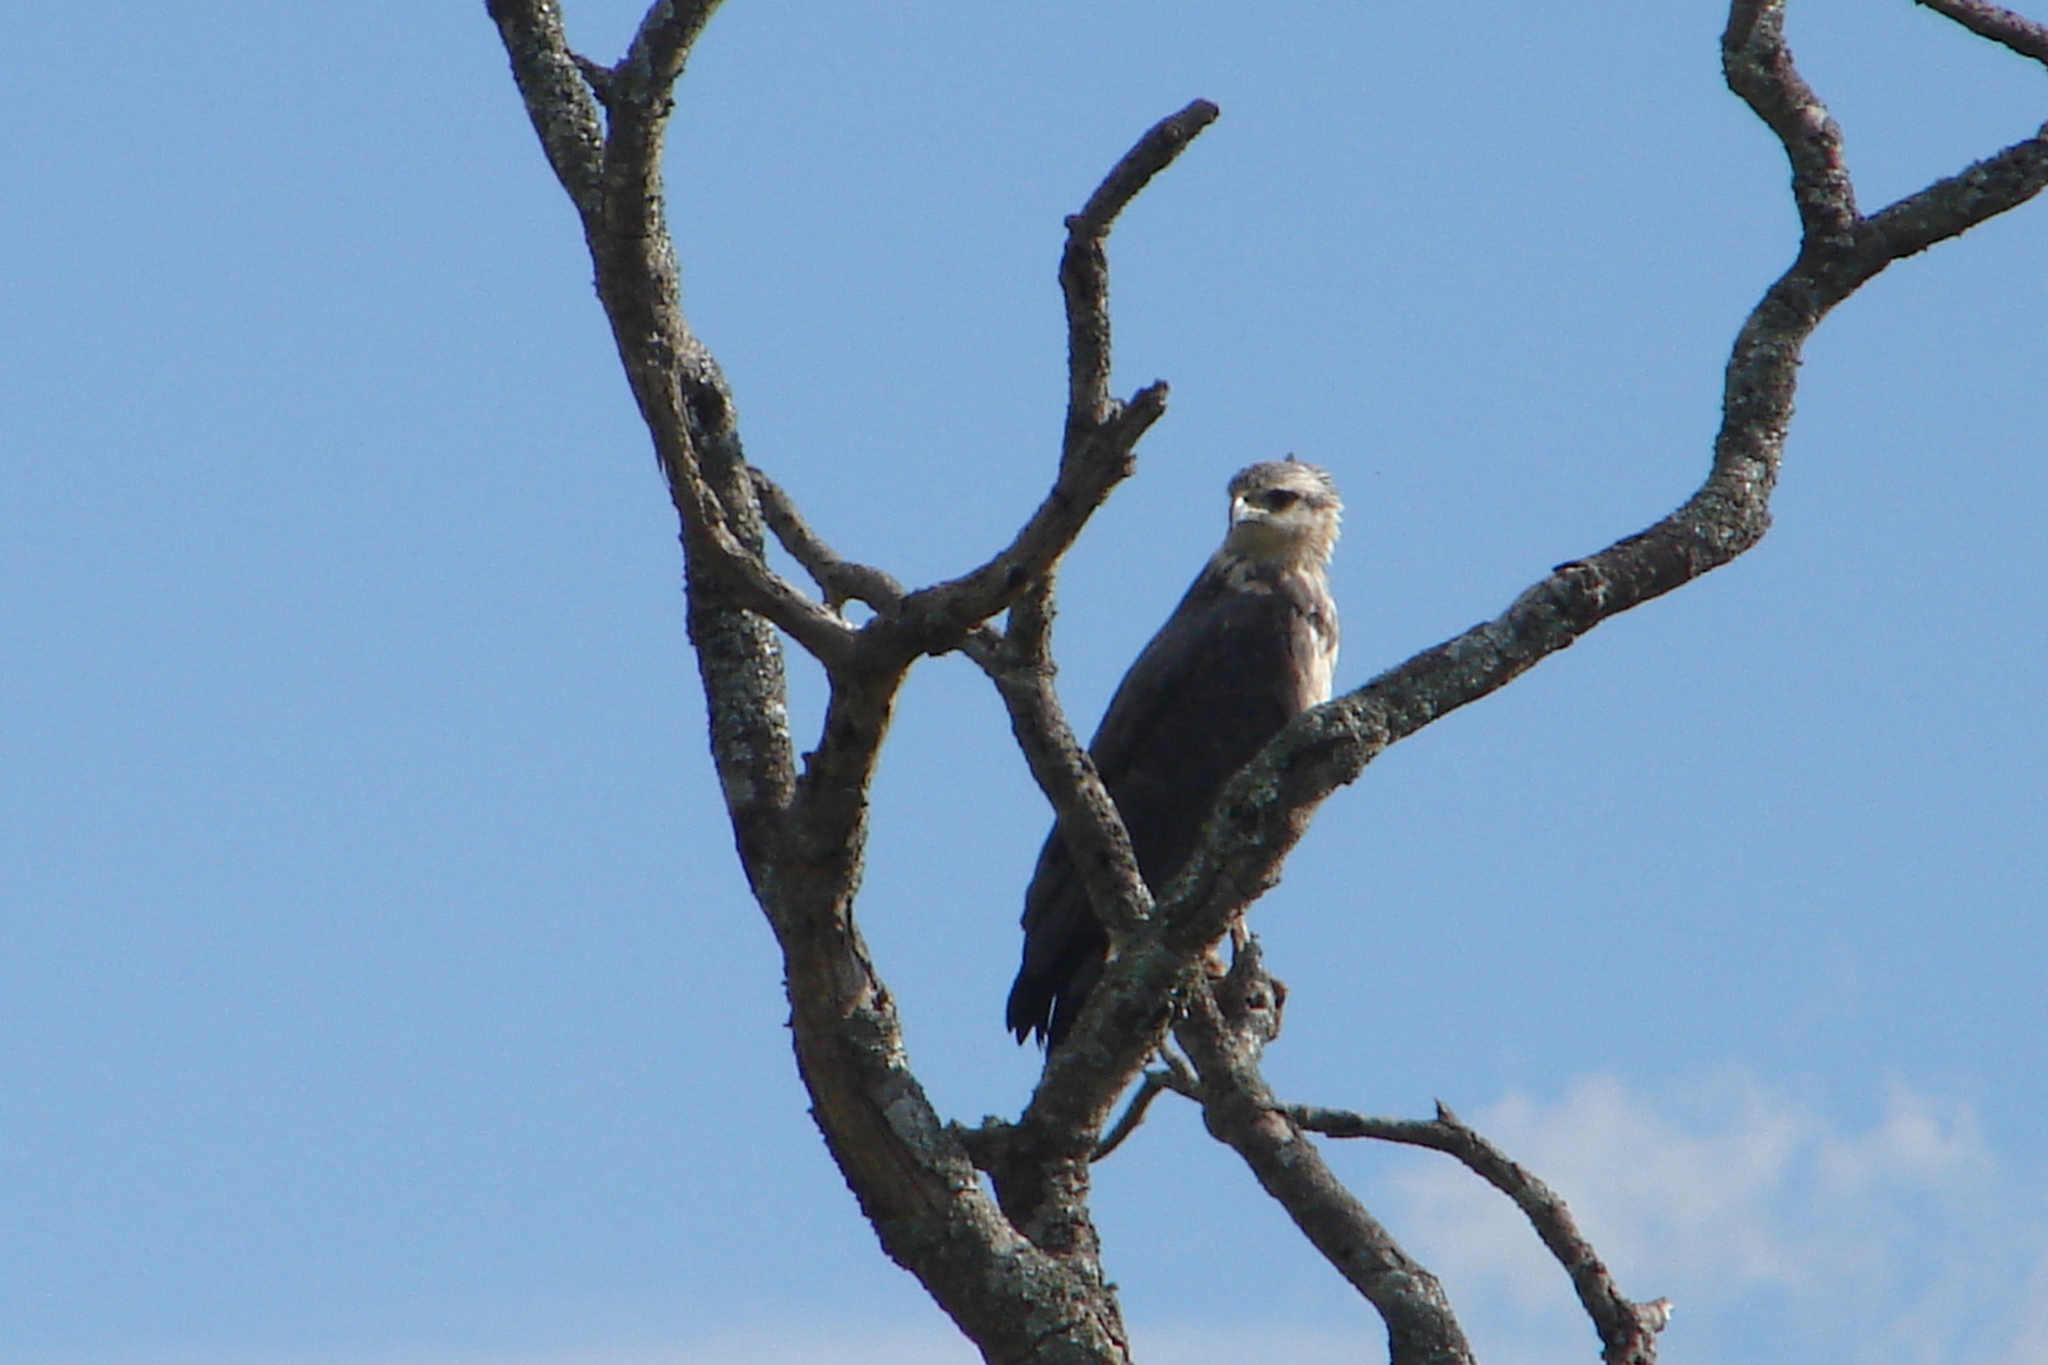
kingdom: Animalia
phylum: Chordata
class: Aves
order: Accipitriformes
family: Accipitridae
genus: Harpyhaliaetus
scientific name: Harpyhaliaetus coronatus
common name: Crowned solitary eagle
